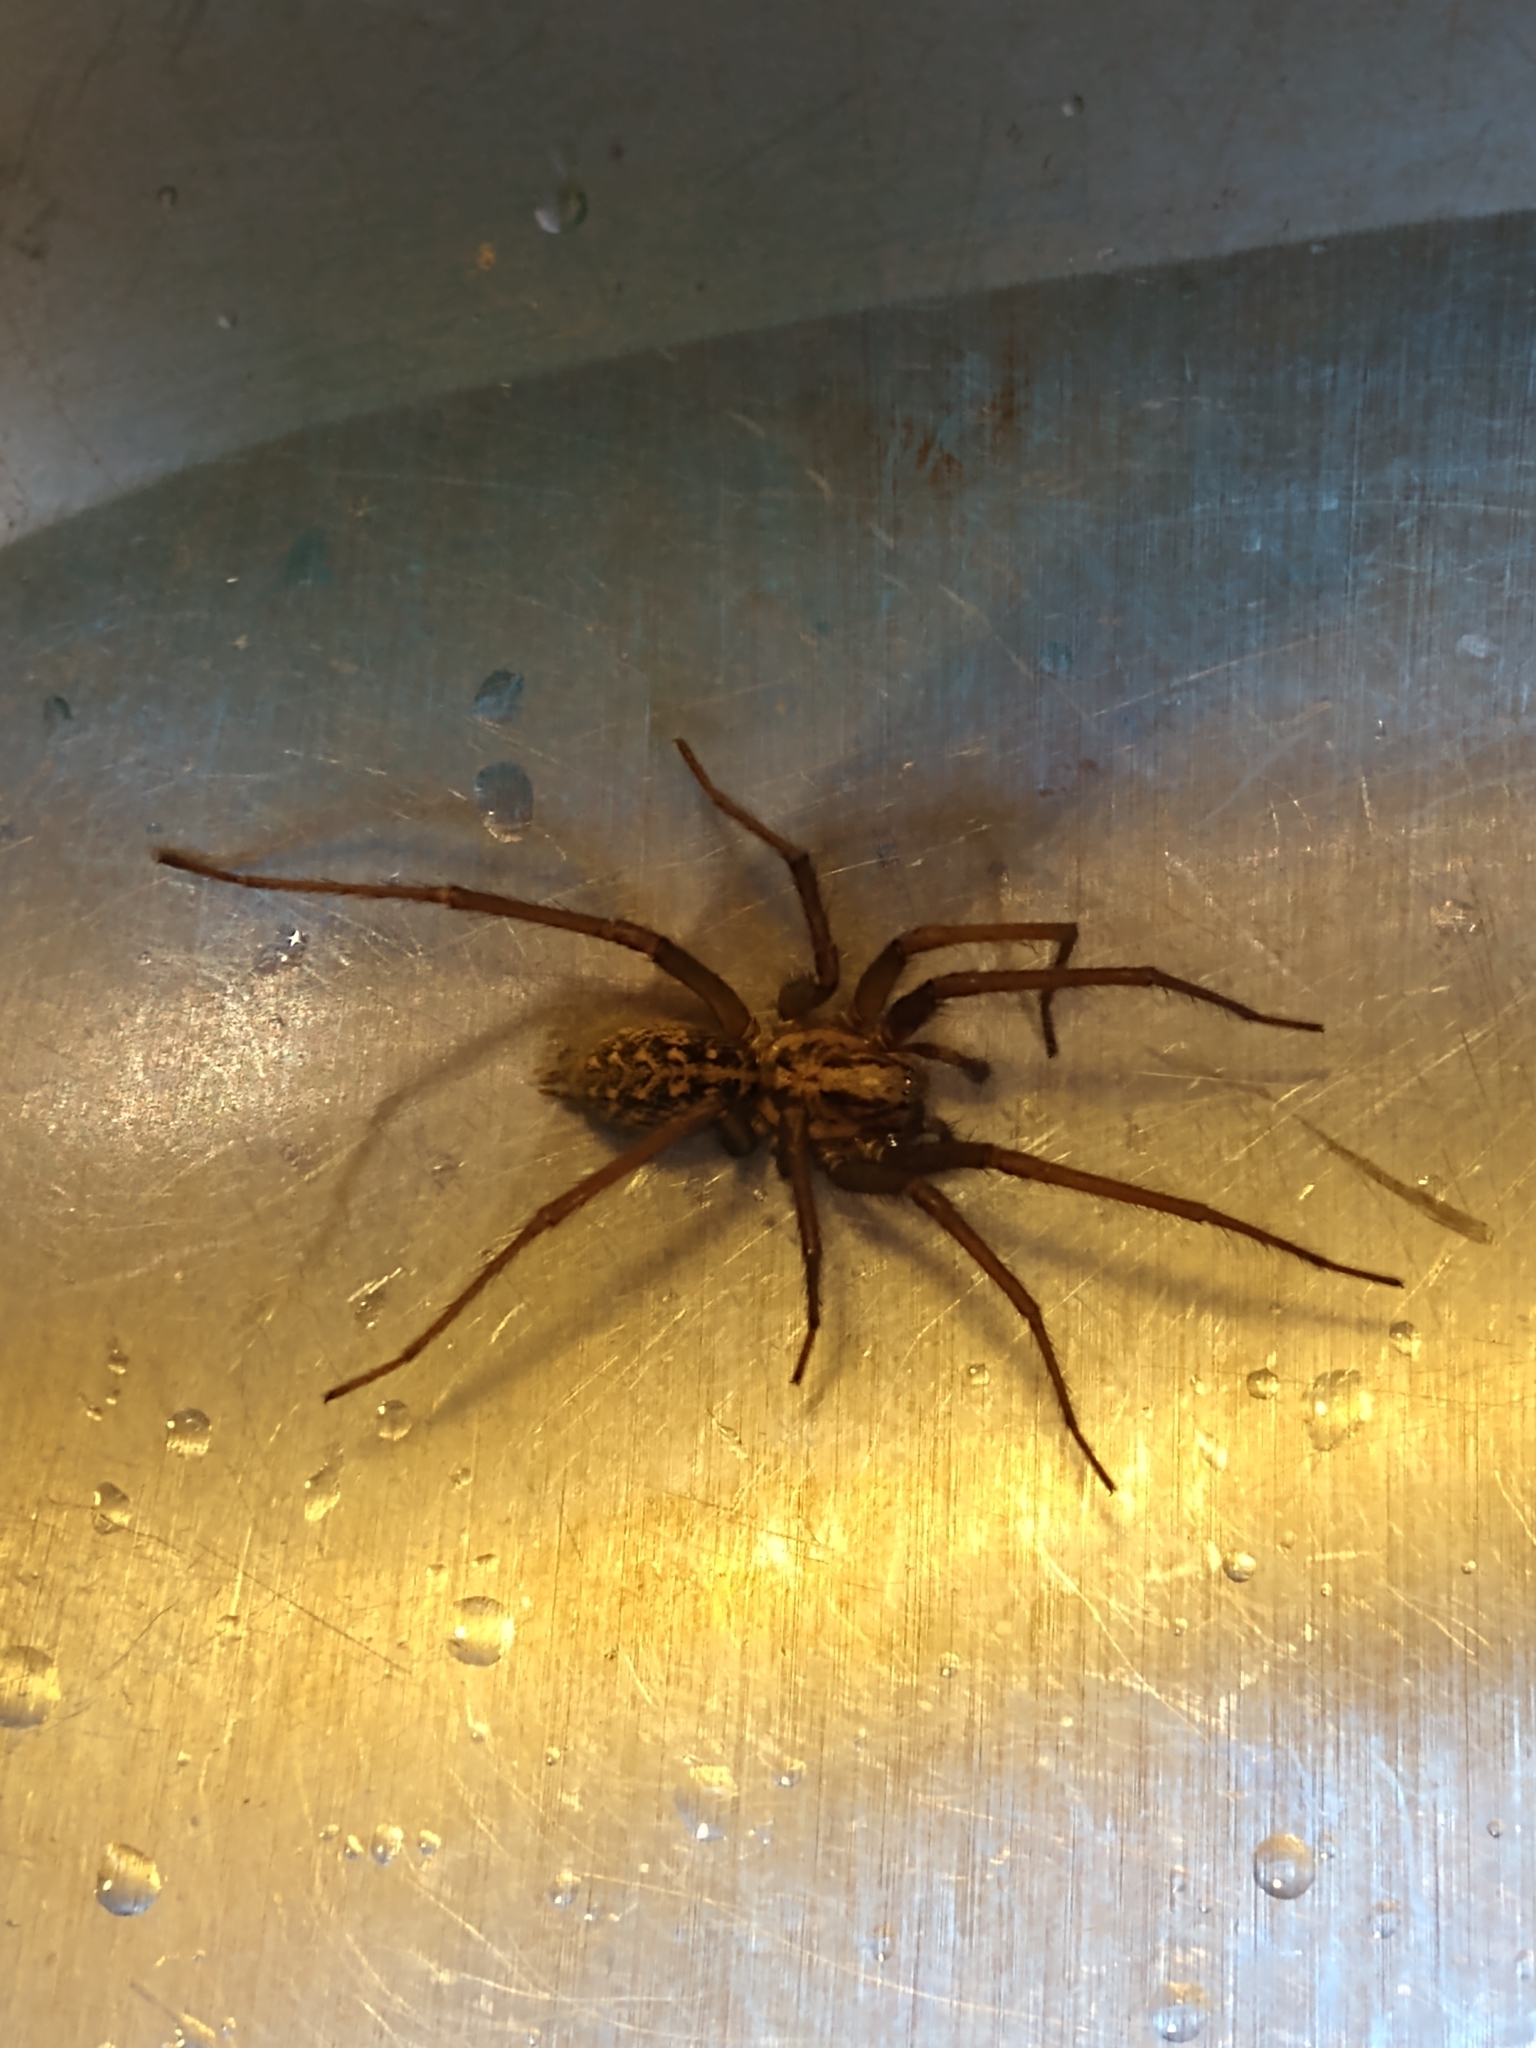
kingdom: Animalia
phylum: Arthropoda
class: Arachnida
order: Araneae
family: Agelenidae
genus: Eratigena
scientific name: Eratigena duellica
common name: Giant house spider
